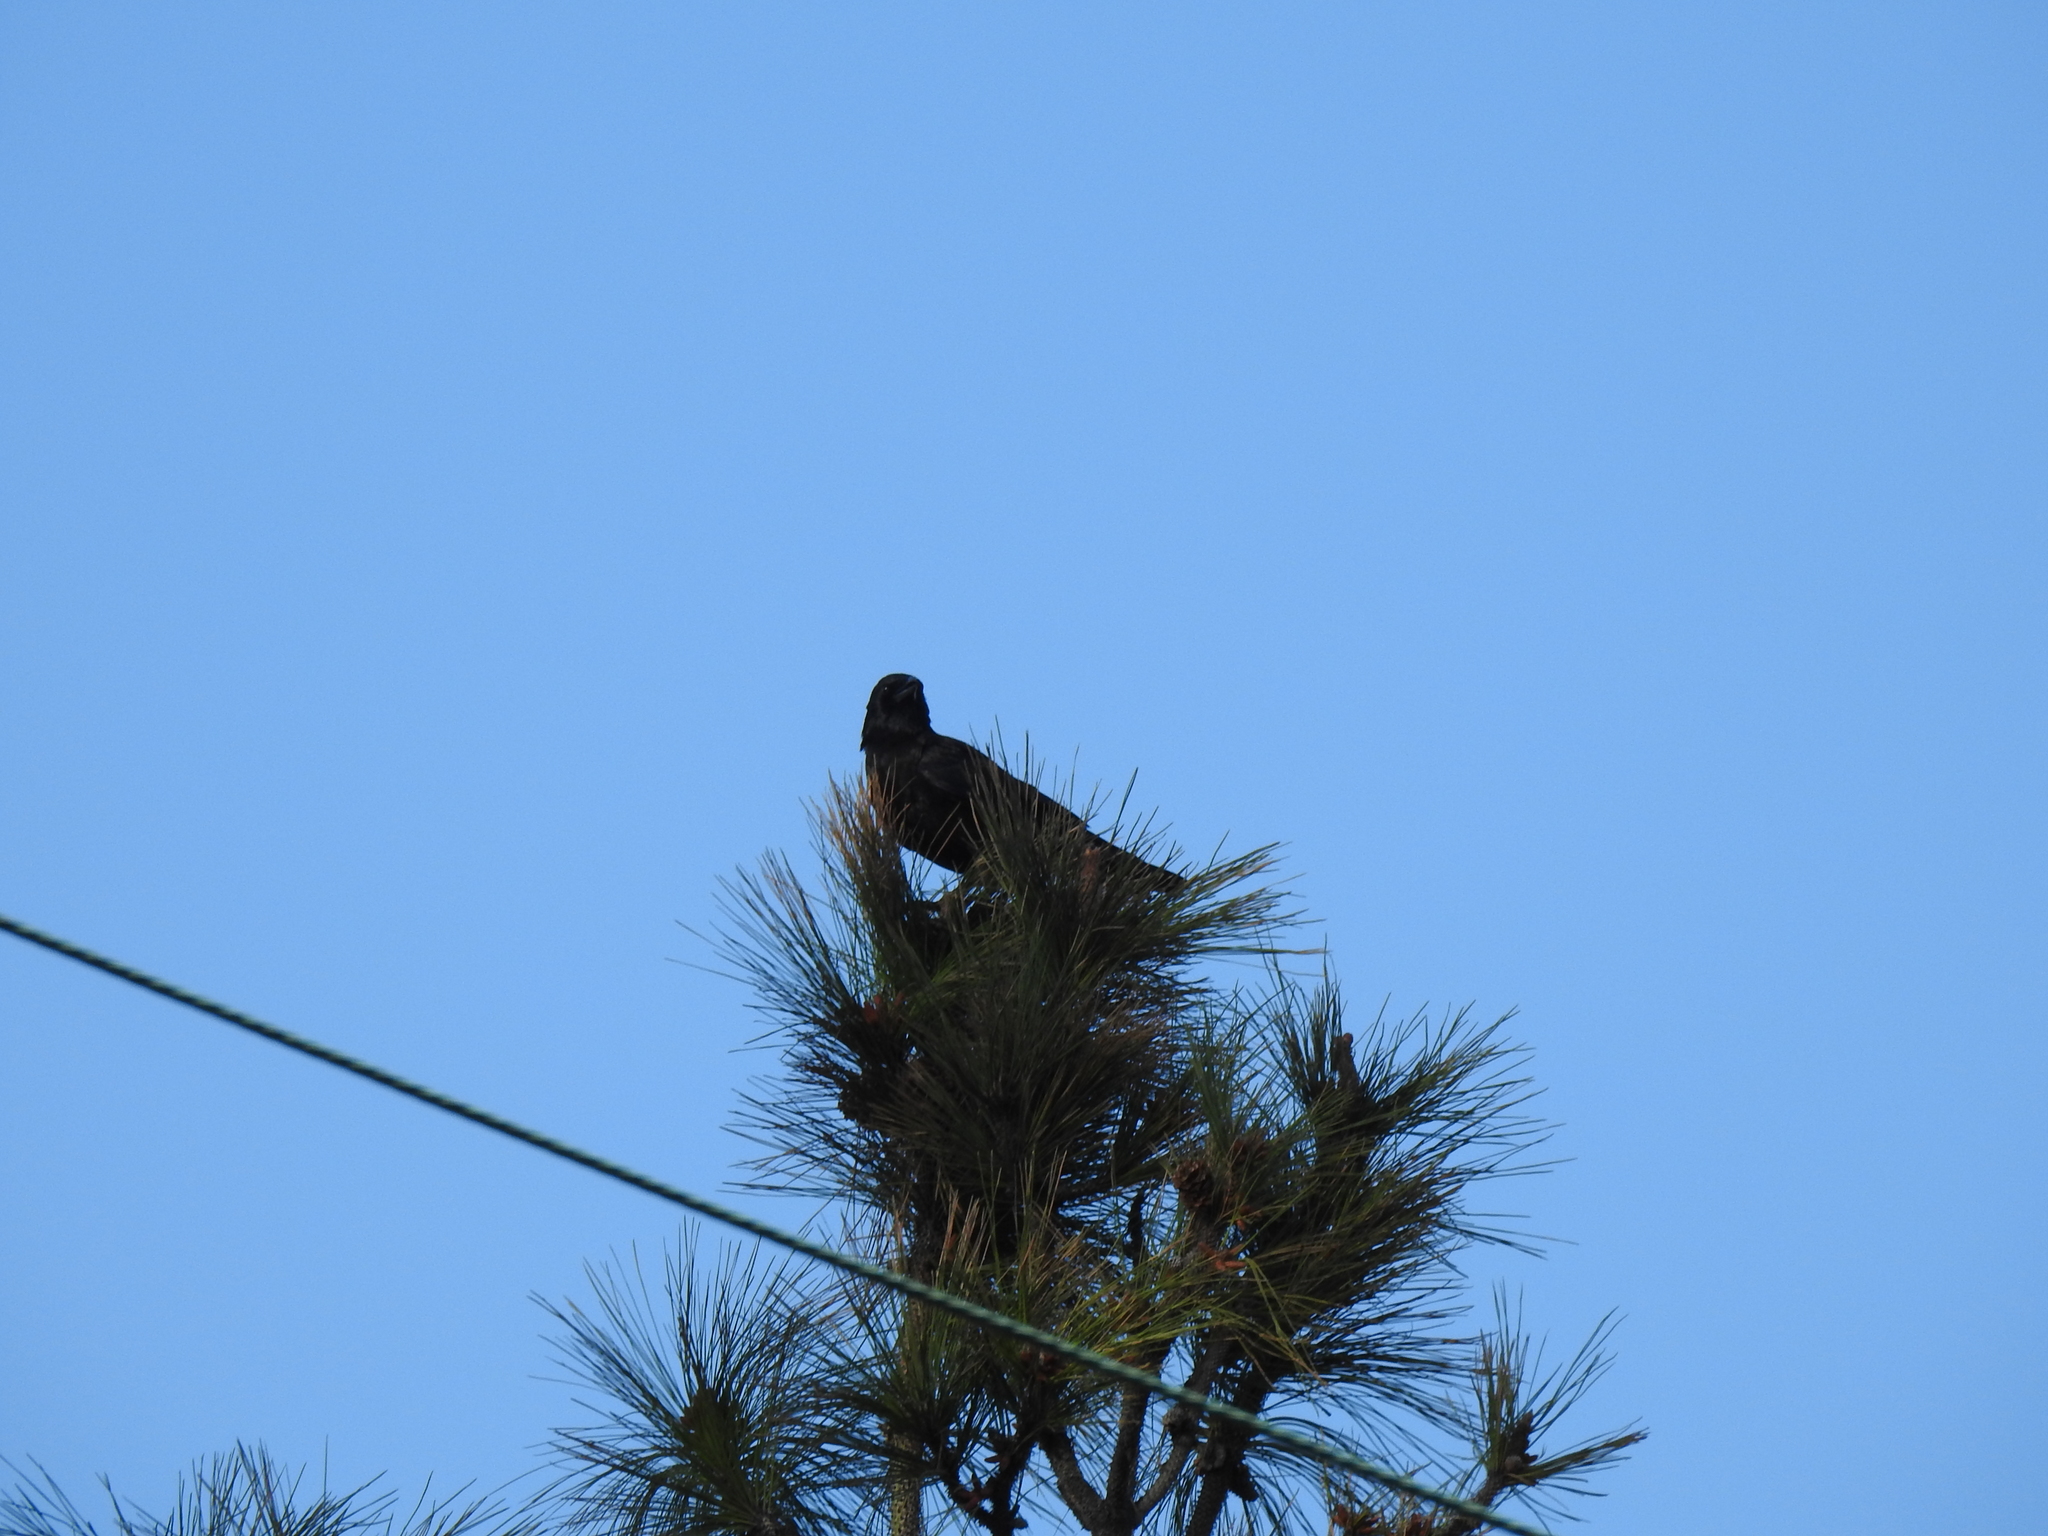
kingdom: Animalia
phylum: Chordata
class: Aves
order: Passeriformes
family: Corvidae
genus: Corvus
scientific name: Corvus brachyrhynchos
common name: American crow
